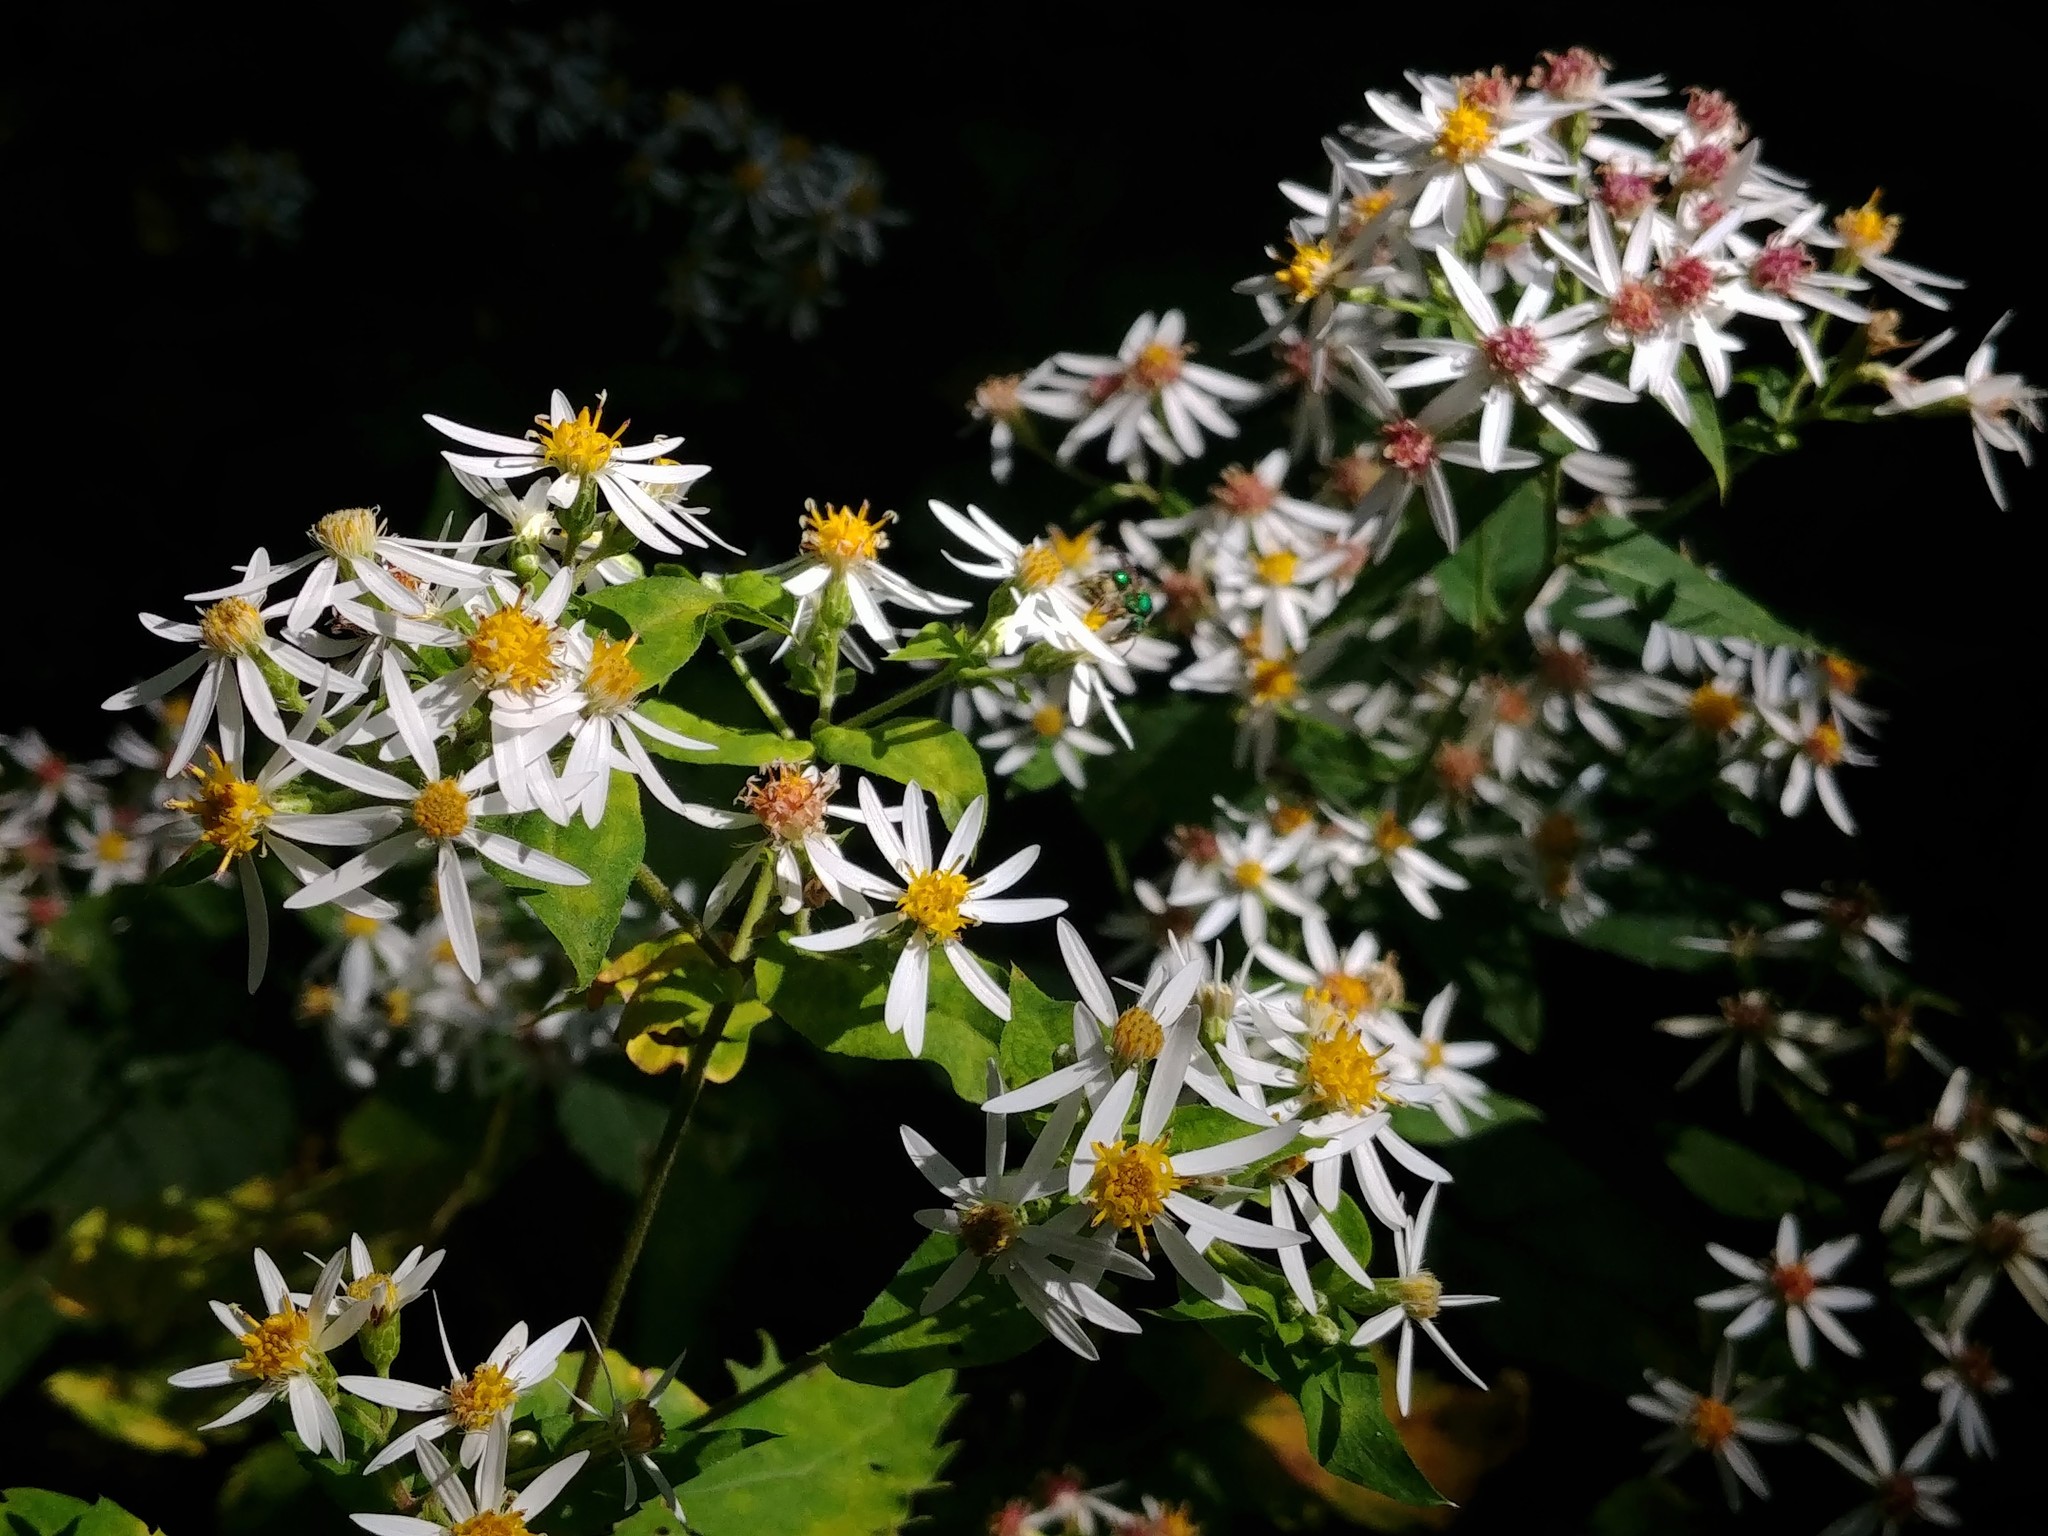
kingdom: Plantae
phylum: Tracheophyta
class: Magnoliopsida
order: Asterales
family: Asteraceae
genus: Eurybia
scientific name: Eurybia divaricata
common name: White wood aster
